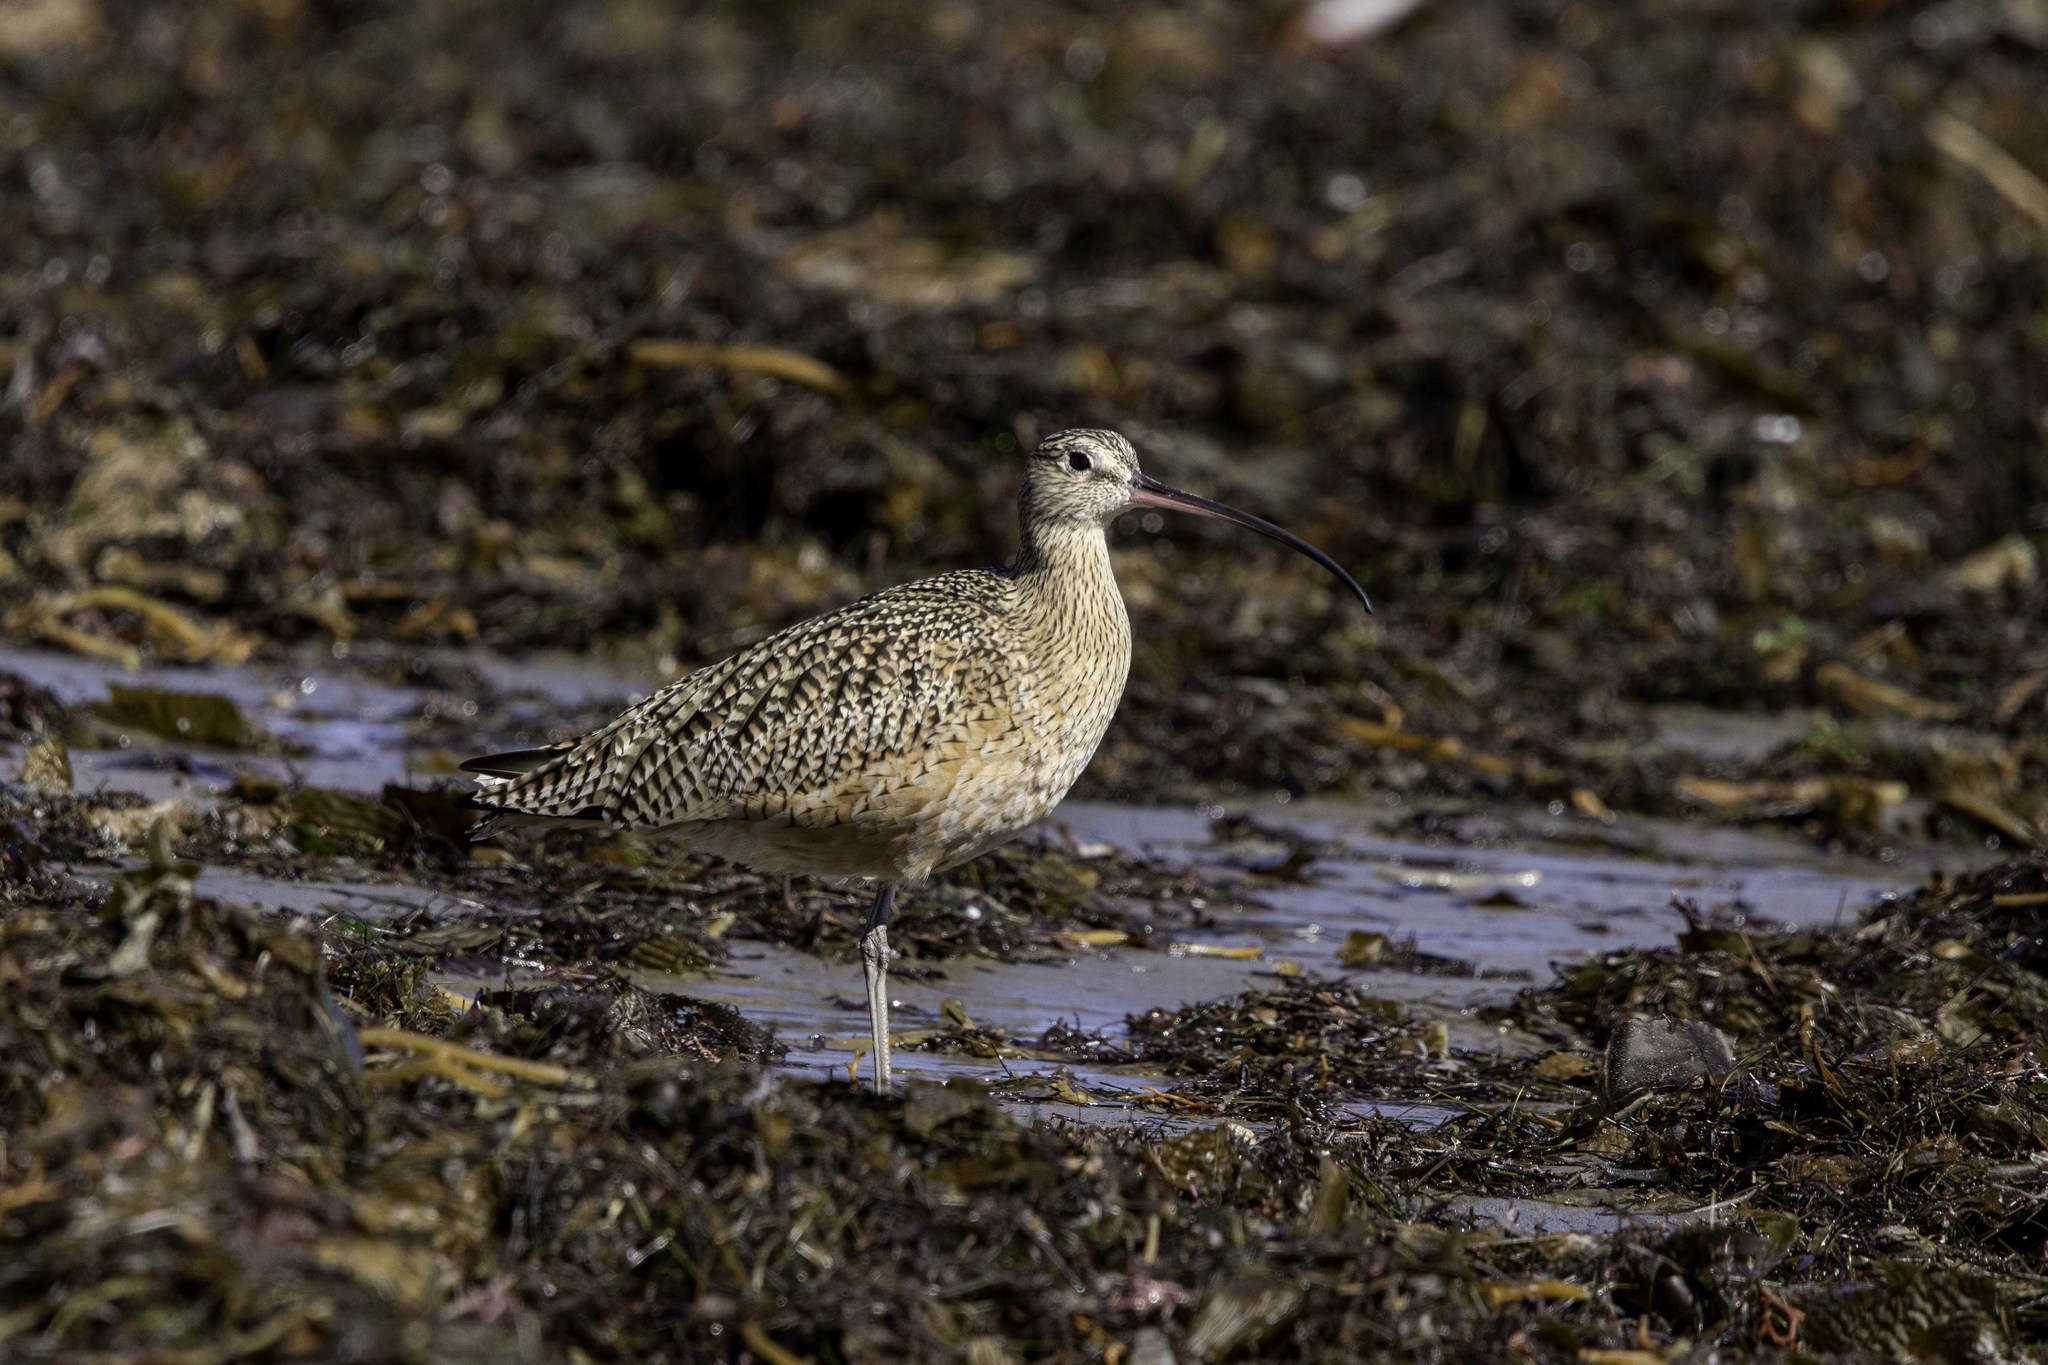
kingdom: Animalia
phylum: Chordata
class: Aves
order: Charadriiformes
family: Scolopacidae
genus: Numenius
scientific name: Numenius americanus
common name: Long-billed curlew
